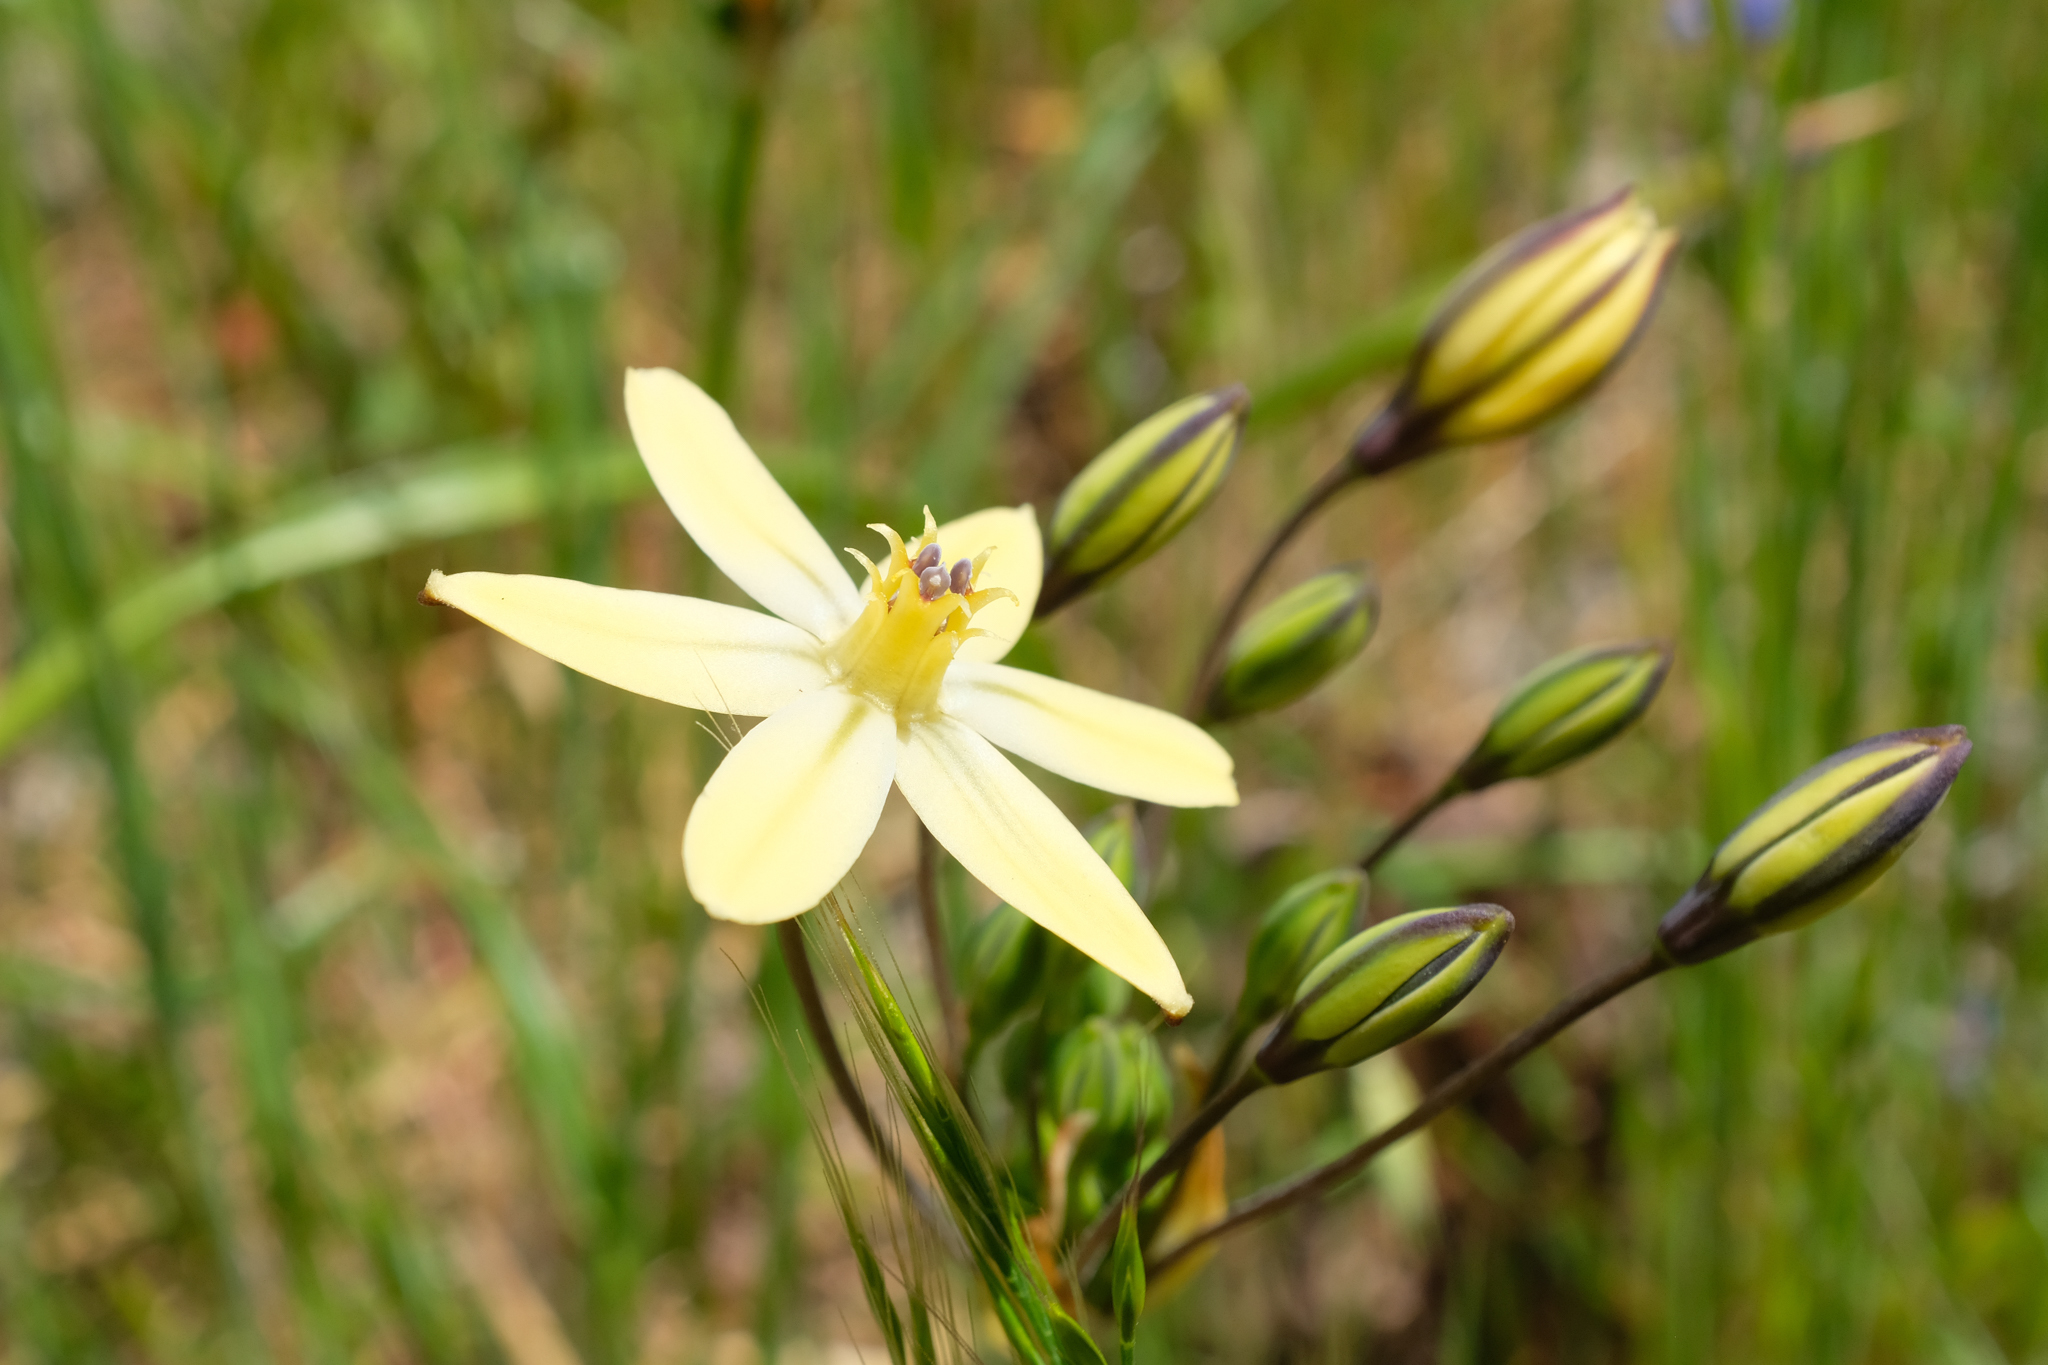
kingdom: Plantae
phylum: Tracheophyta
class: Liliopsida
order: Asparagales
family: Asparagaceae
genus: Triteleia
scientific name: Triteleia ixioides
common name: Yellow-brodiaea
